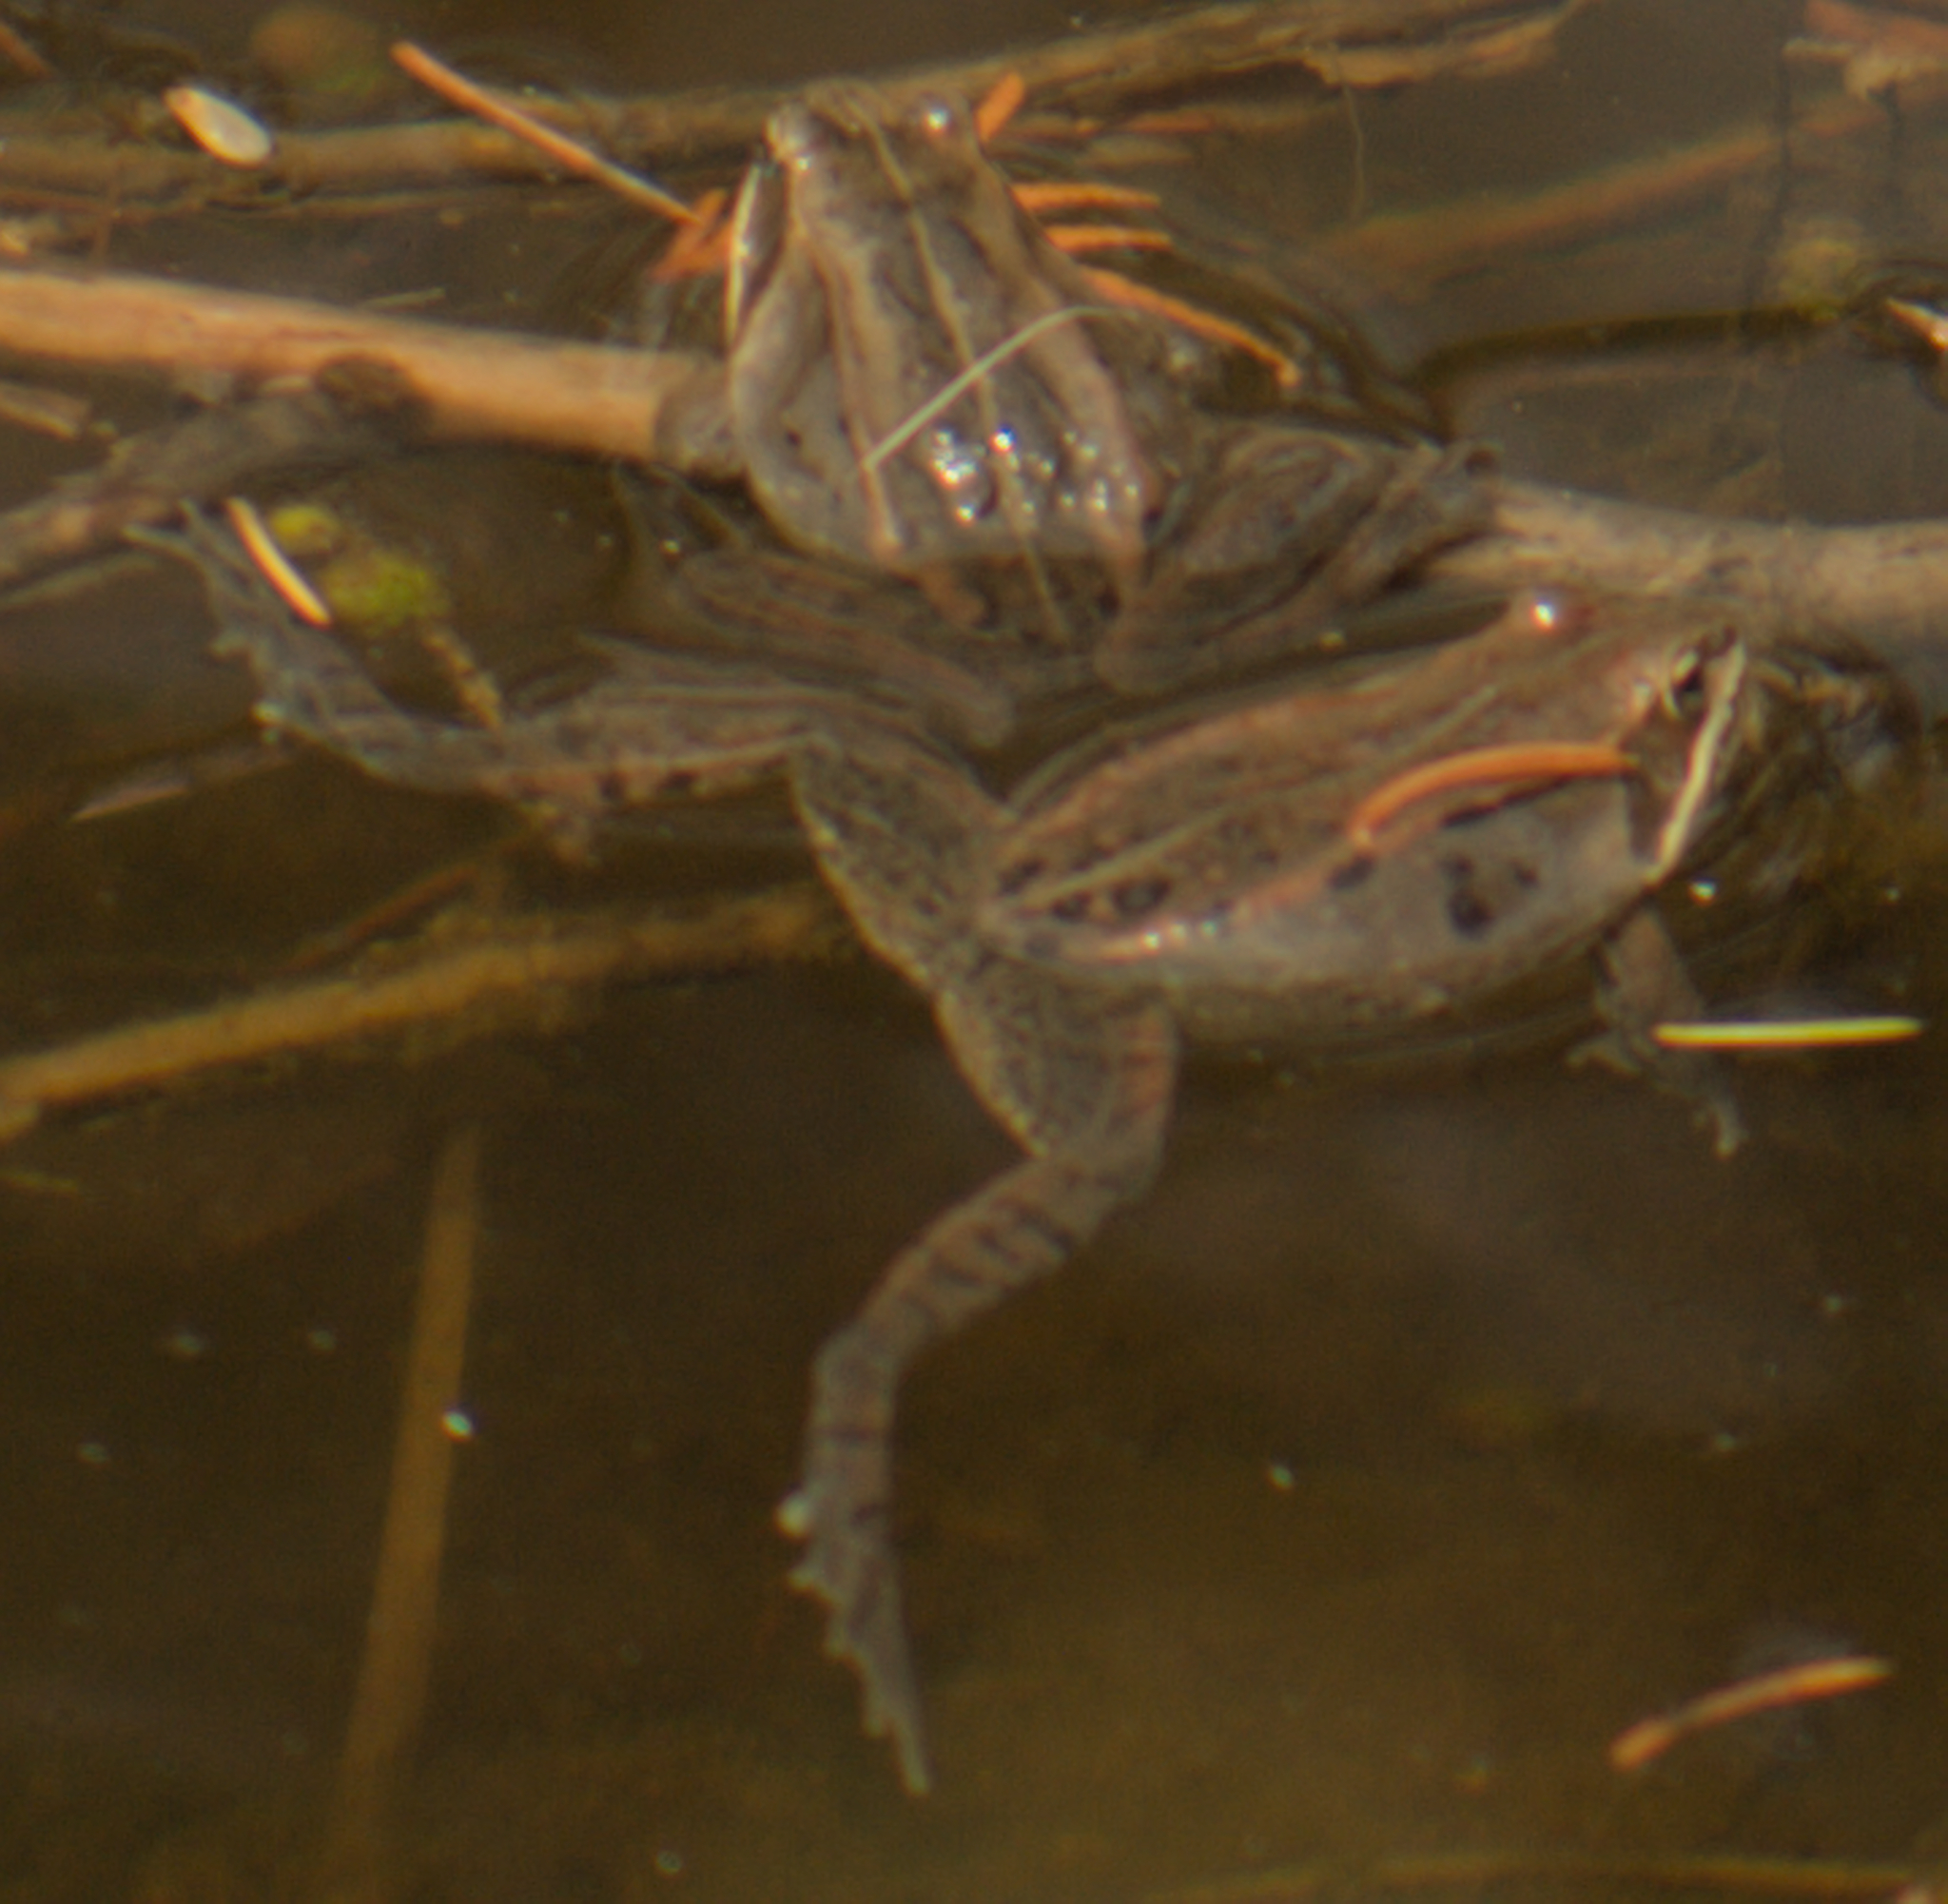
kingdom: Animalia
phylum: Chordata
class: Amphibia
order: Anura
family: Ranidae
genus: Lithobates
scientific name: Lithobates sylvaticus
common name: Wood frog
